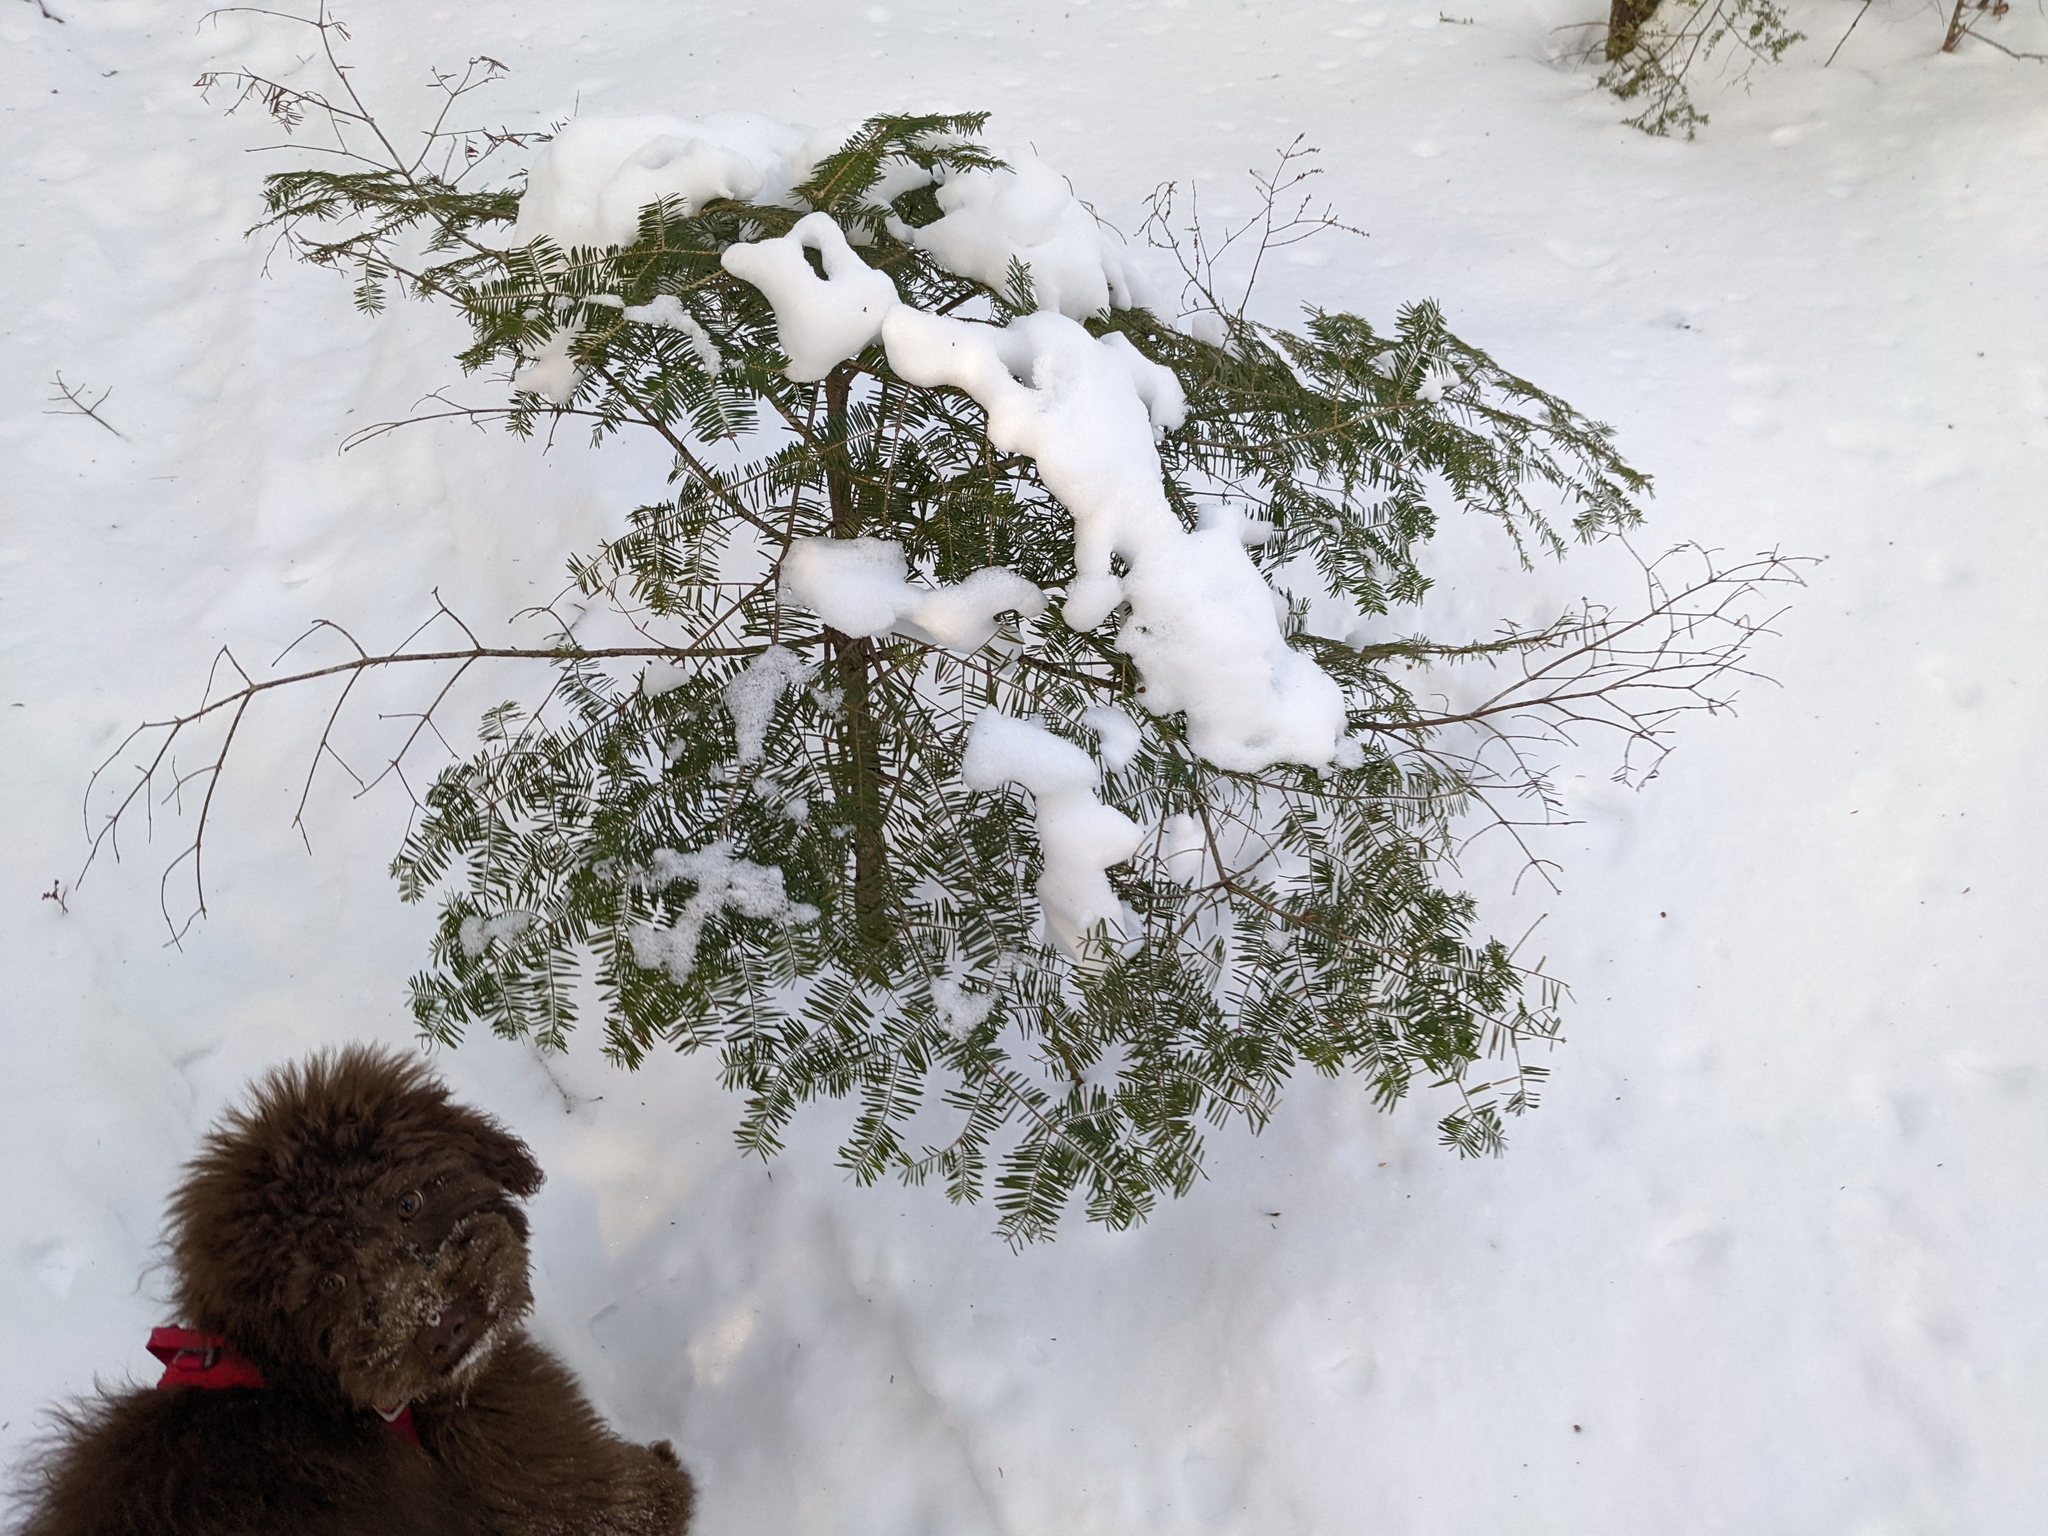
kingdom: Plantae
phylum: Tracheophyta
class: Pinopsida
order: Pinales
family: Pinaceae
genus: Abies
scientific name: Abies balsamea
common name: Balsam fir
